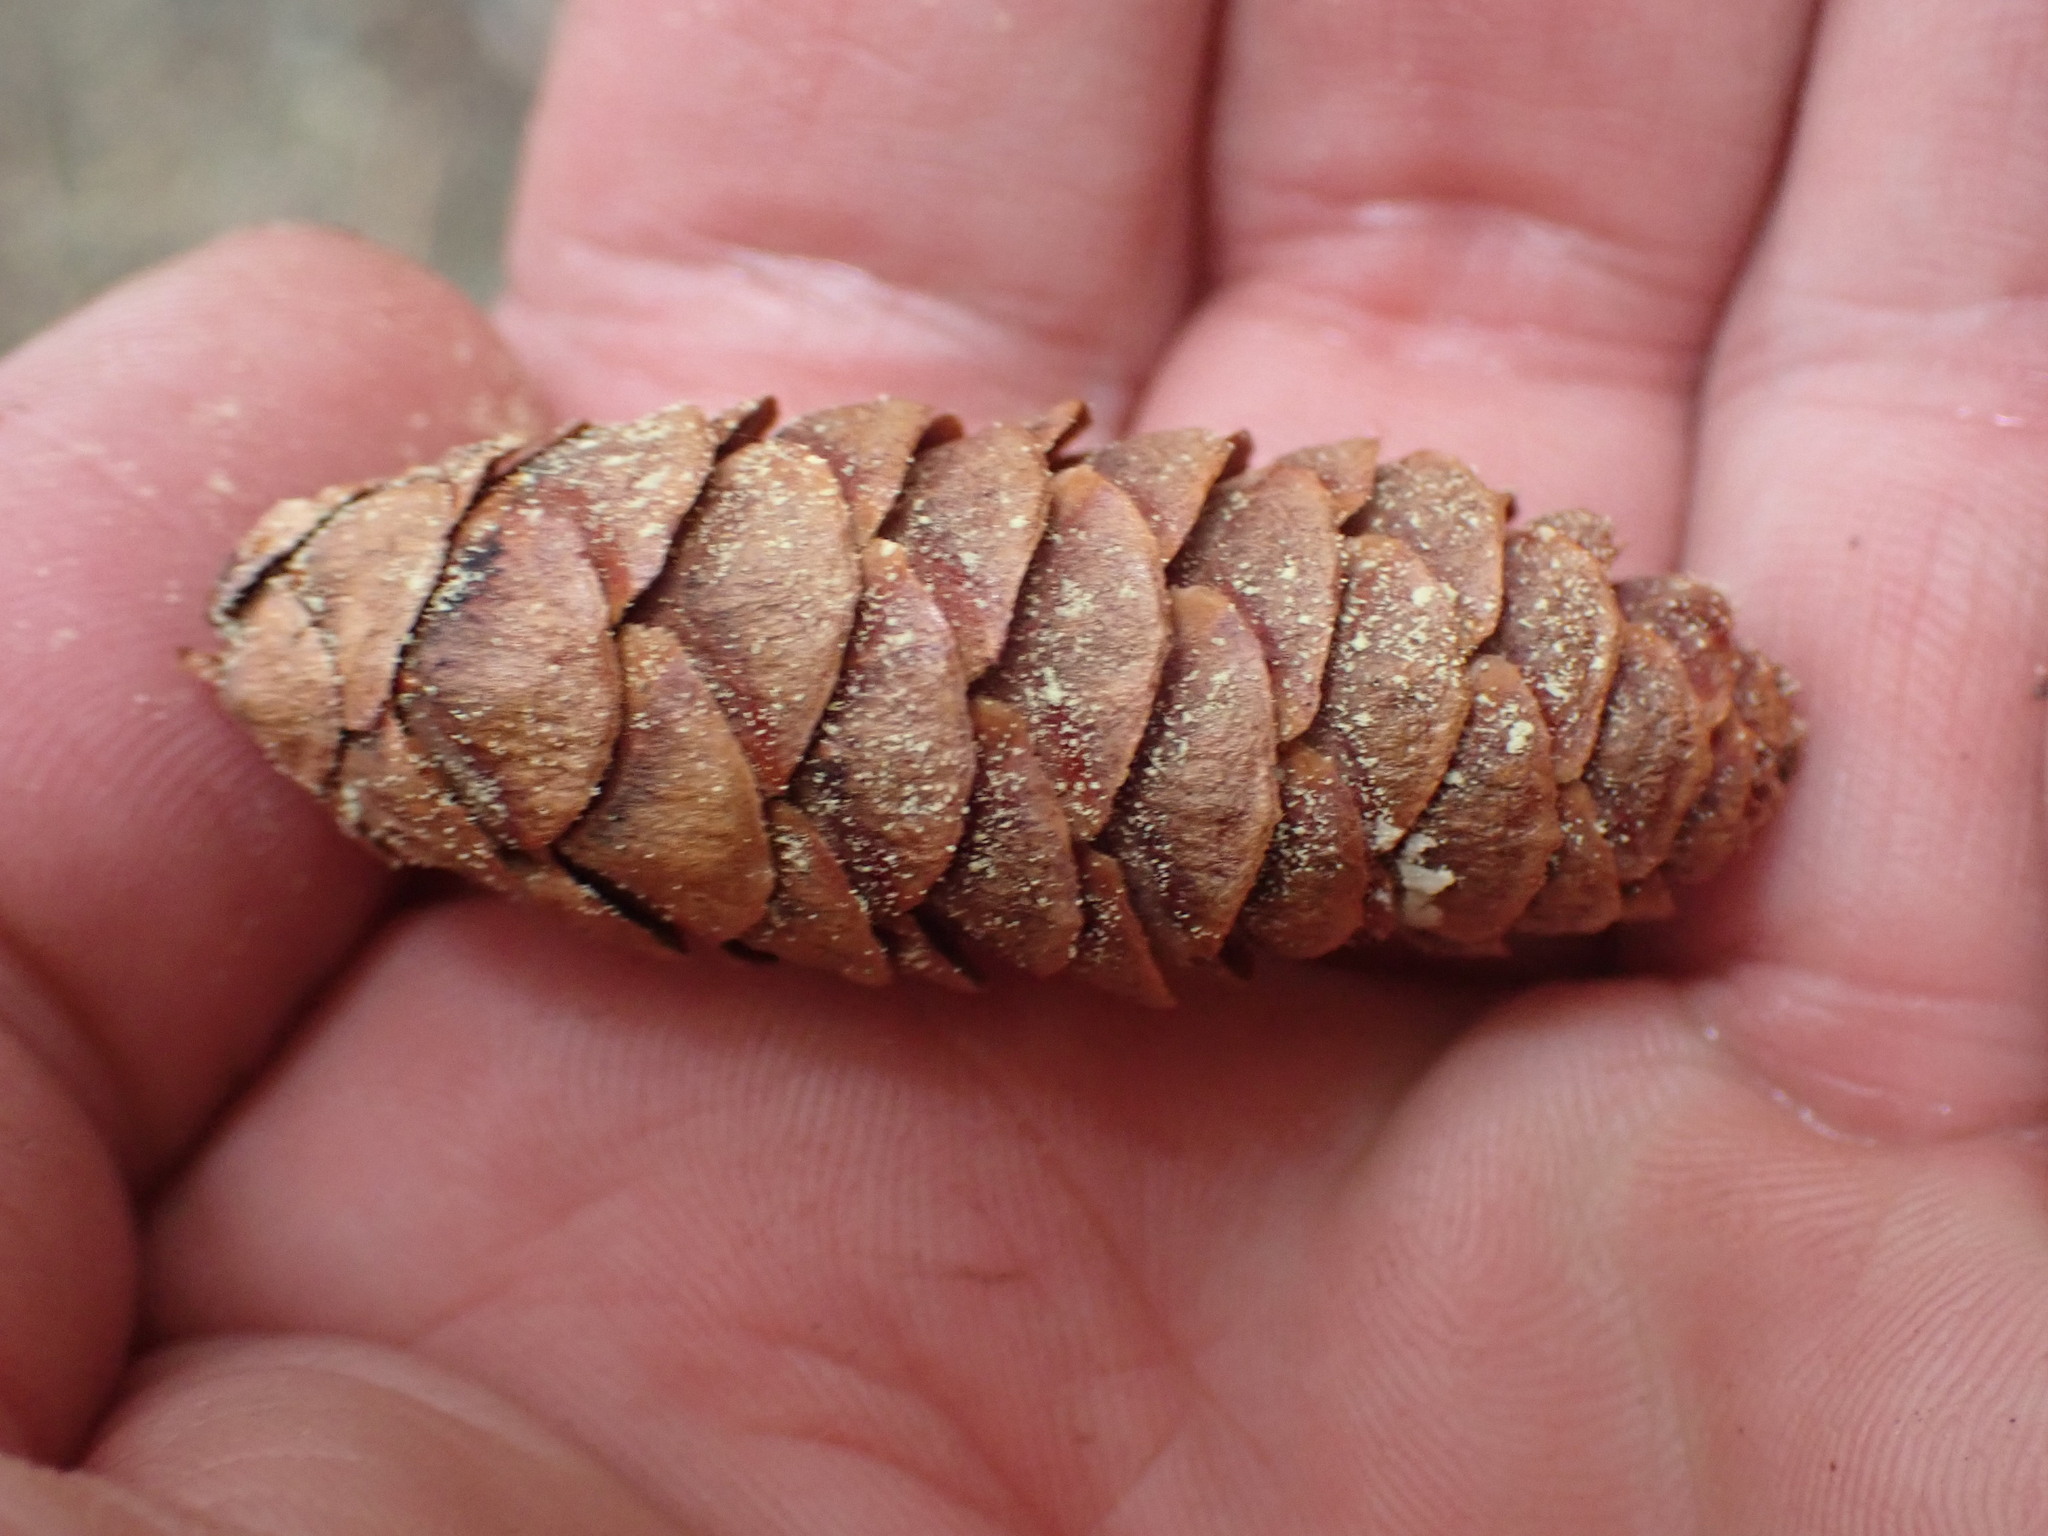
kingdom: Plantae
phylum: Tracheophyta
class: Pinopsida
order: Pinales
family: Pinaceae
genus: Tsuga
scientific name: Tsuga mertensiana
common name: Mountain hemlock
